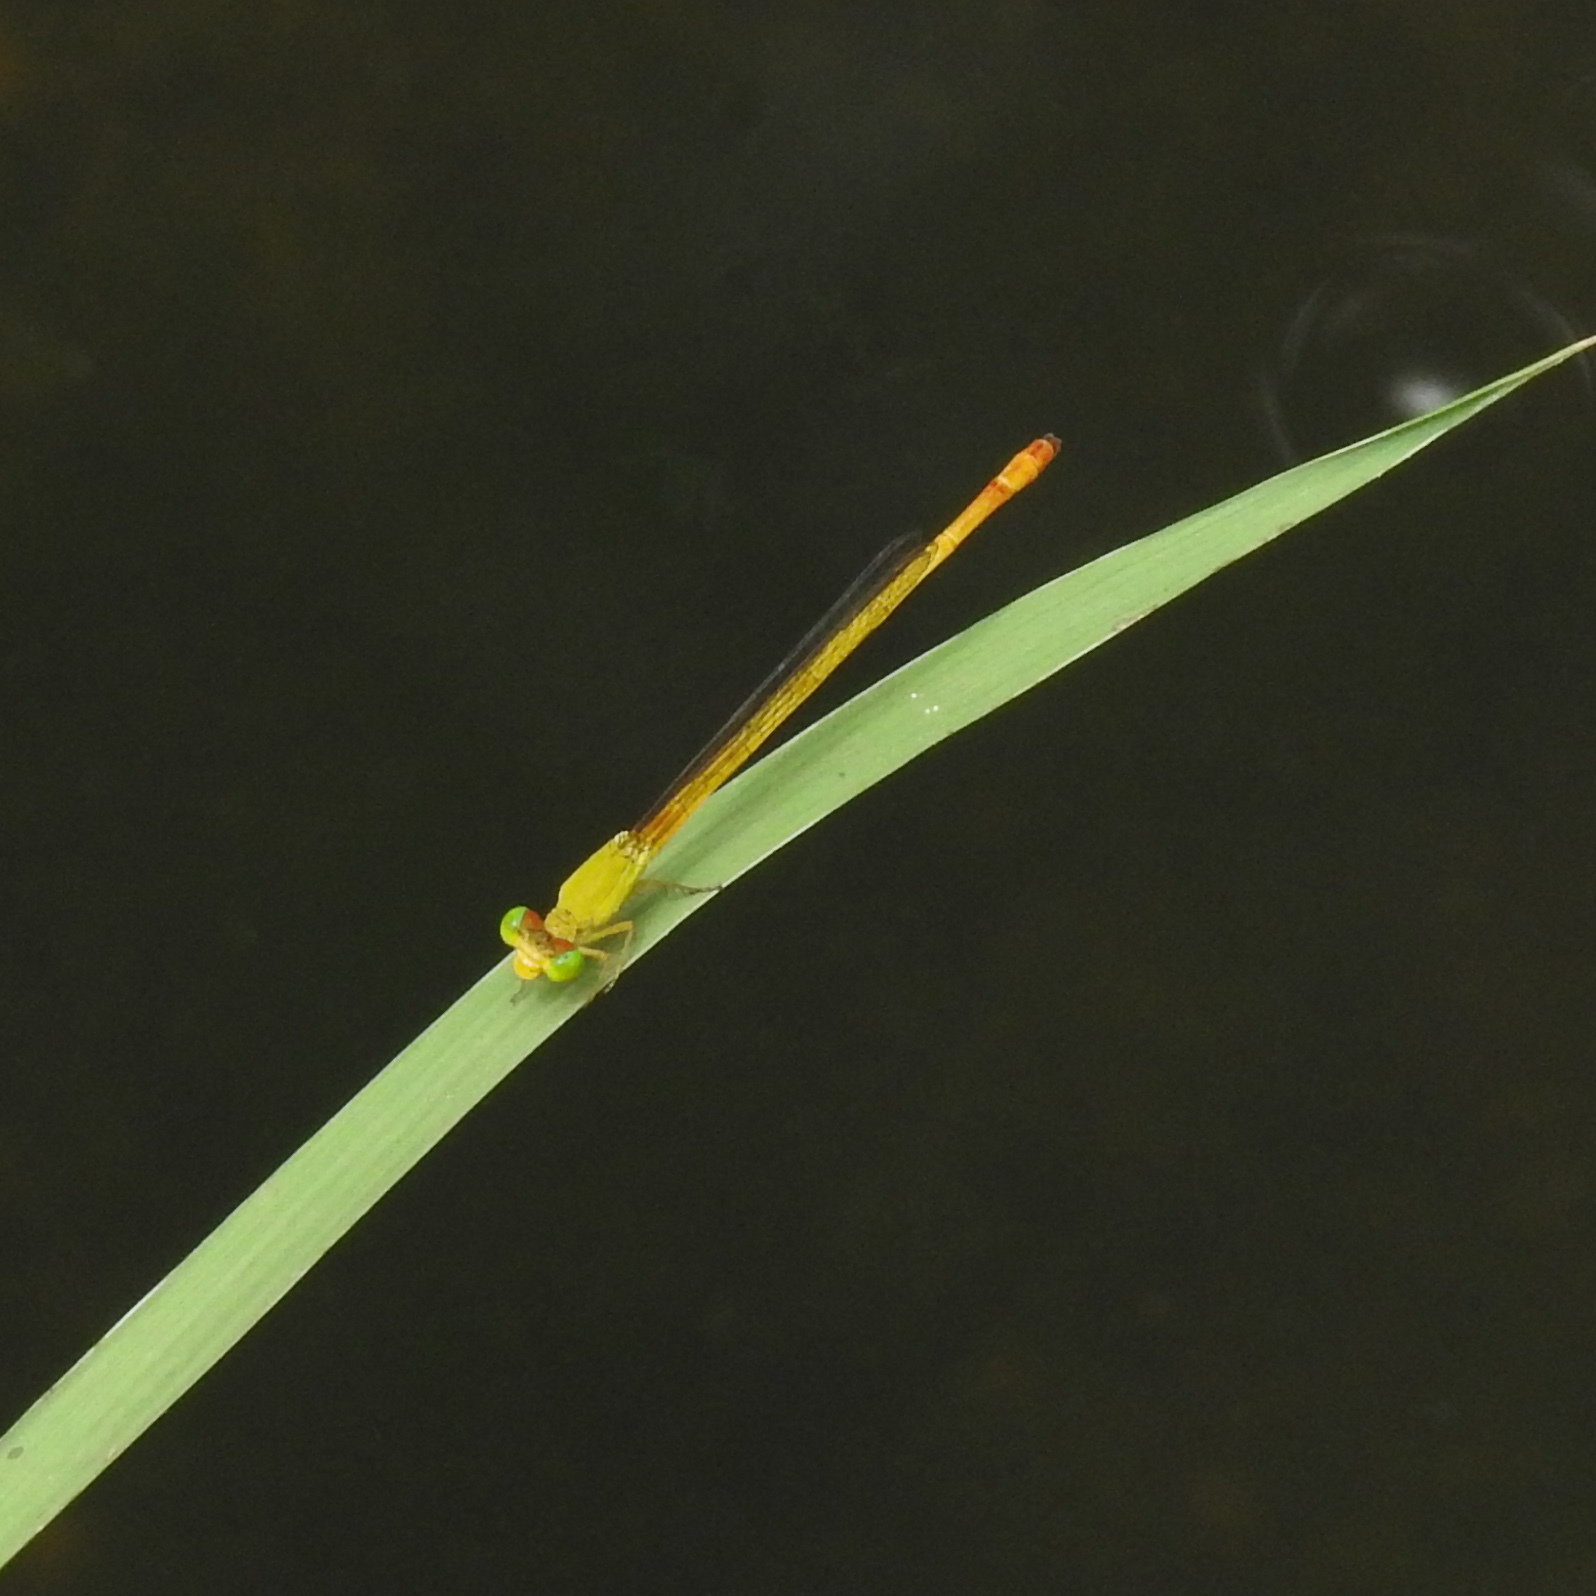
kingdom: Animalia
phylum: Arthropoda
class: Insecta
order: Odonata
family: Coenagrionidae
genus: Ceriagrion
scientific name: Ceriagrion coromandelianum
